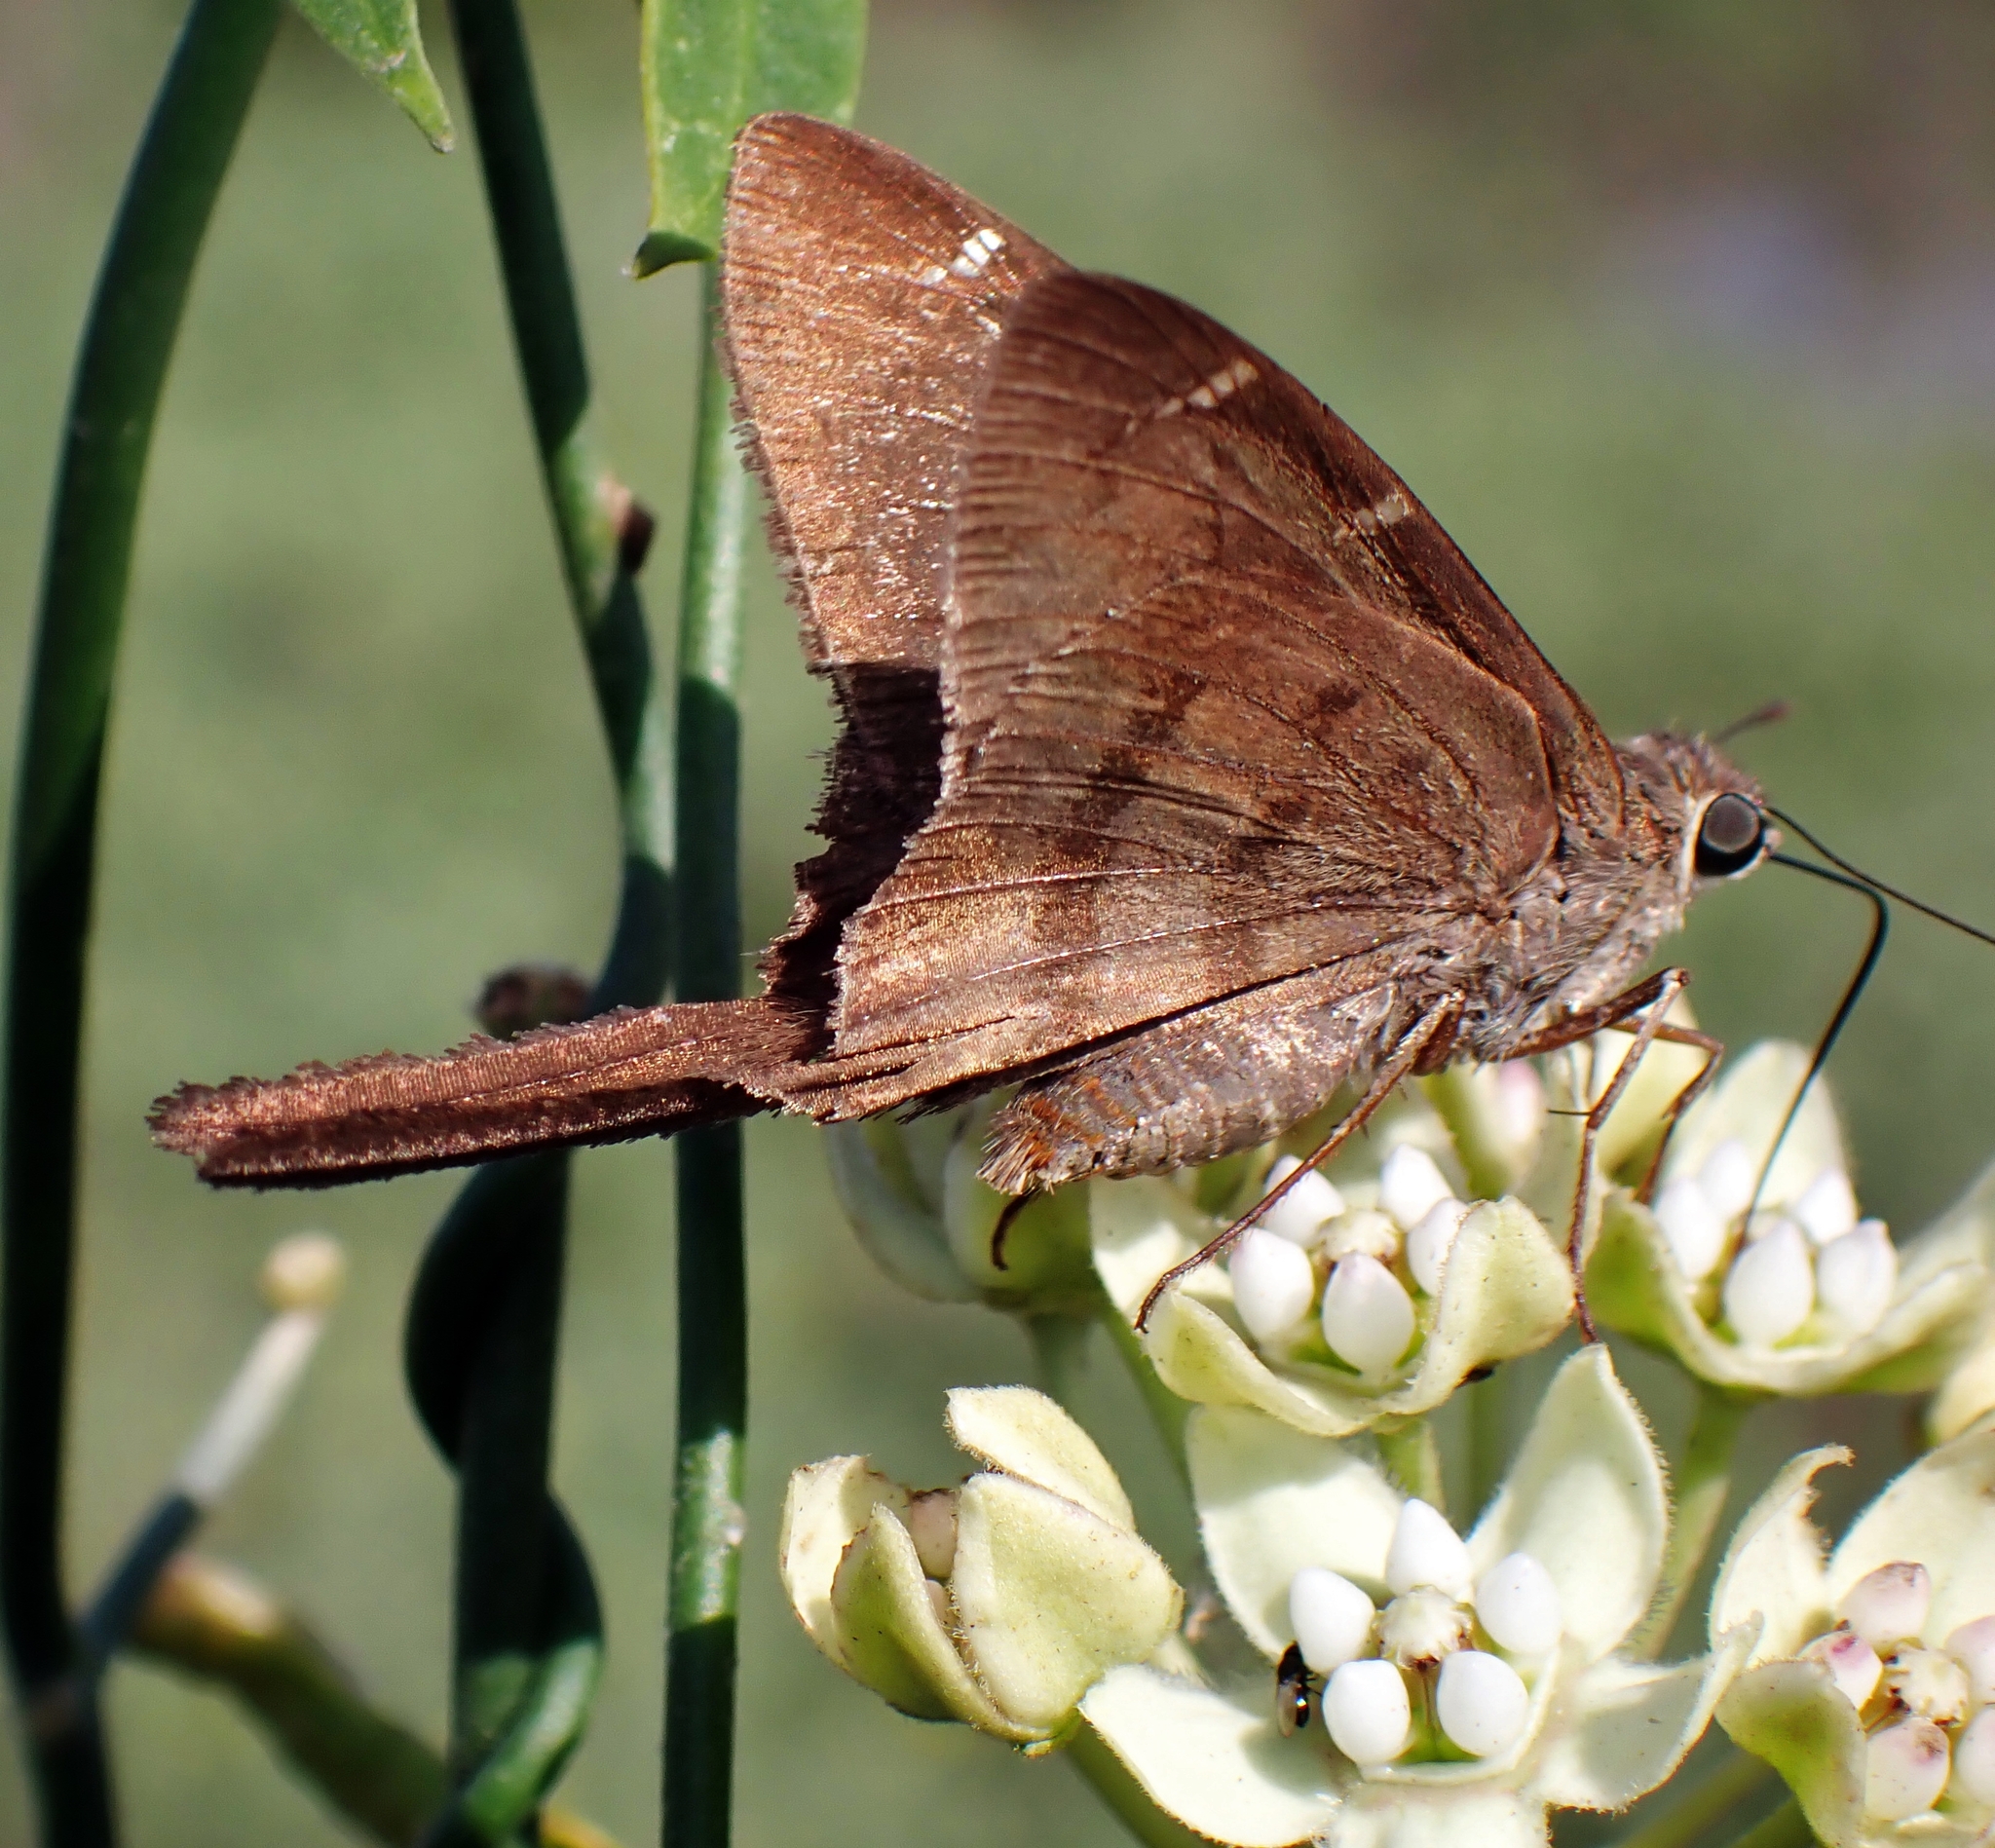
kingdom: Animalia
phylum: Arthropoda
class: Insecta
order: Lepidoptera
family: Hesperiidae
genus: Urbanus
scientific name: Urbanus procne
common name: Brown longtail
